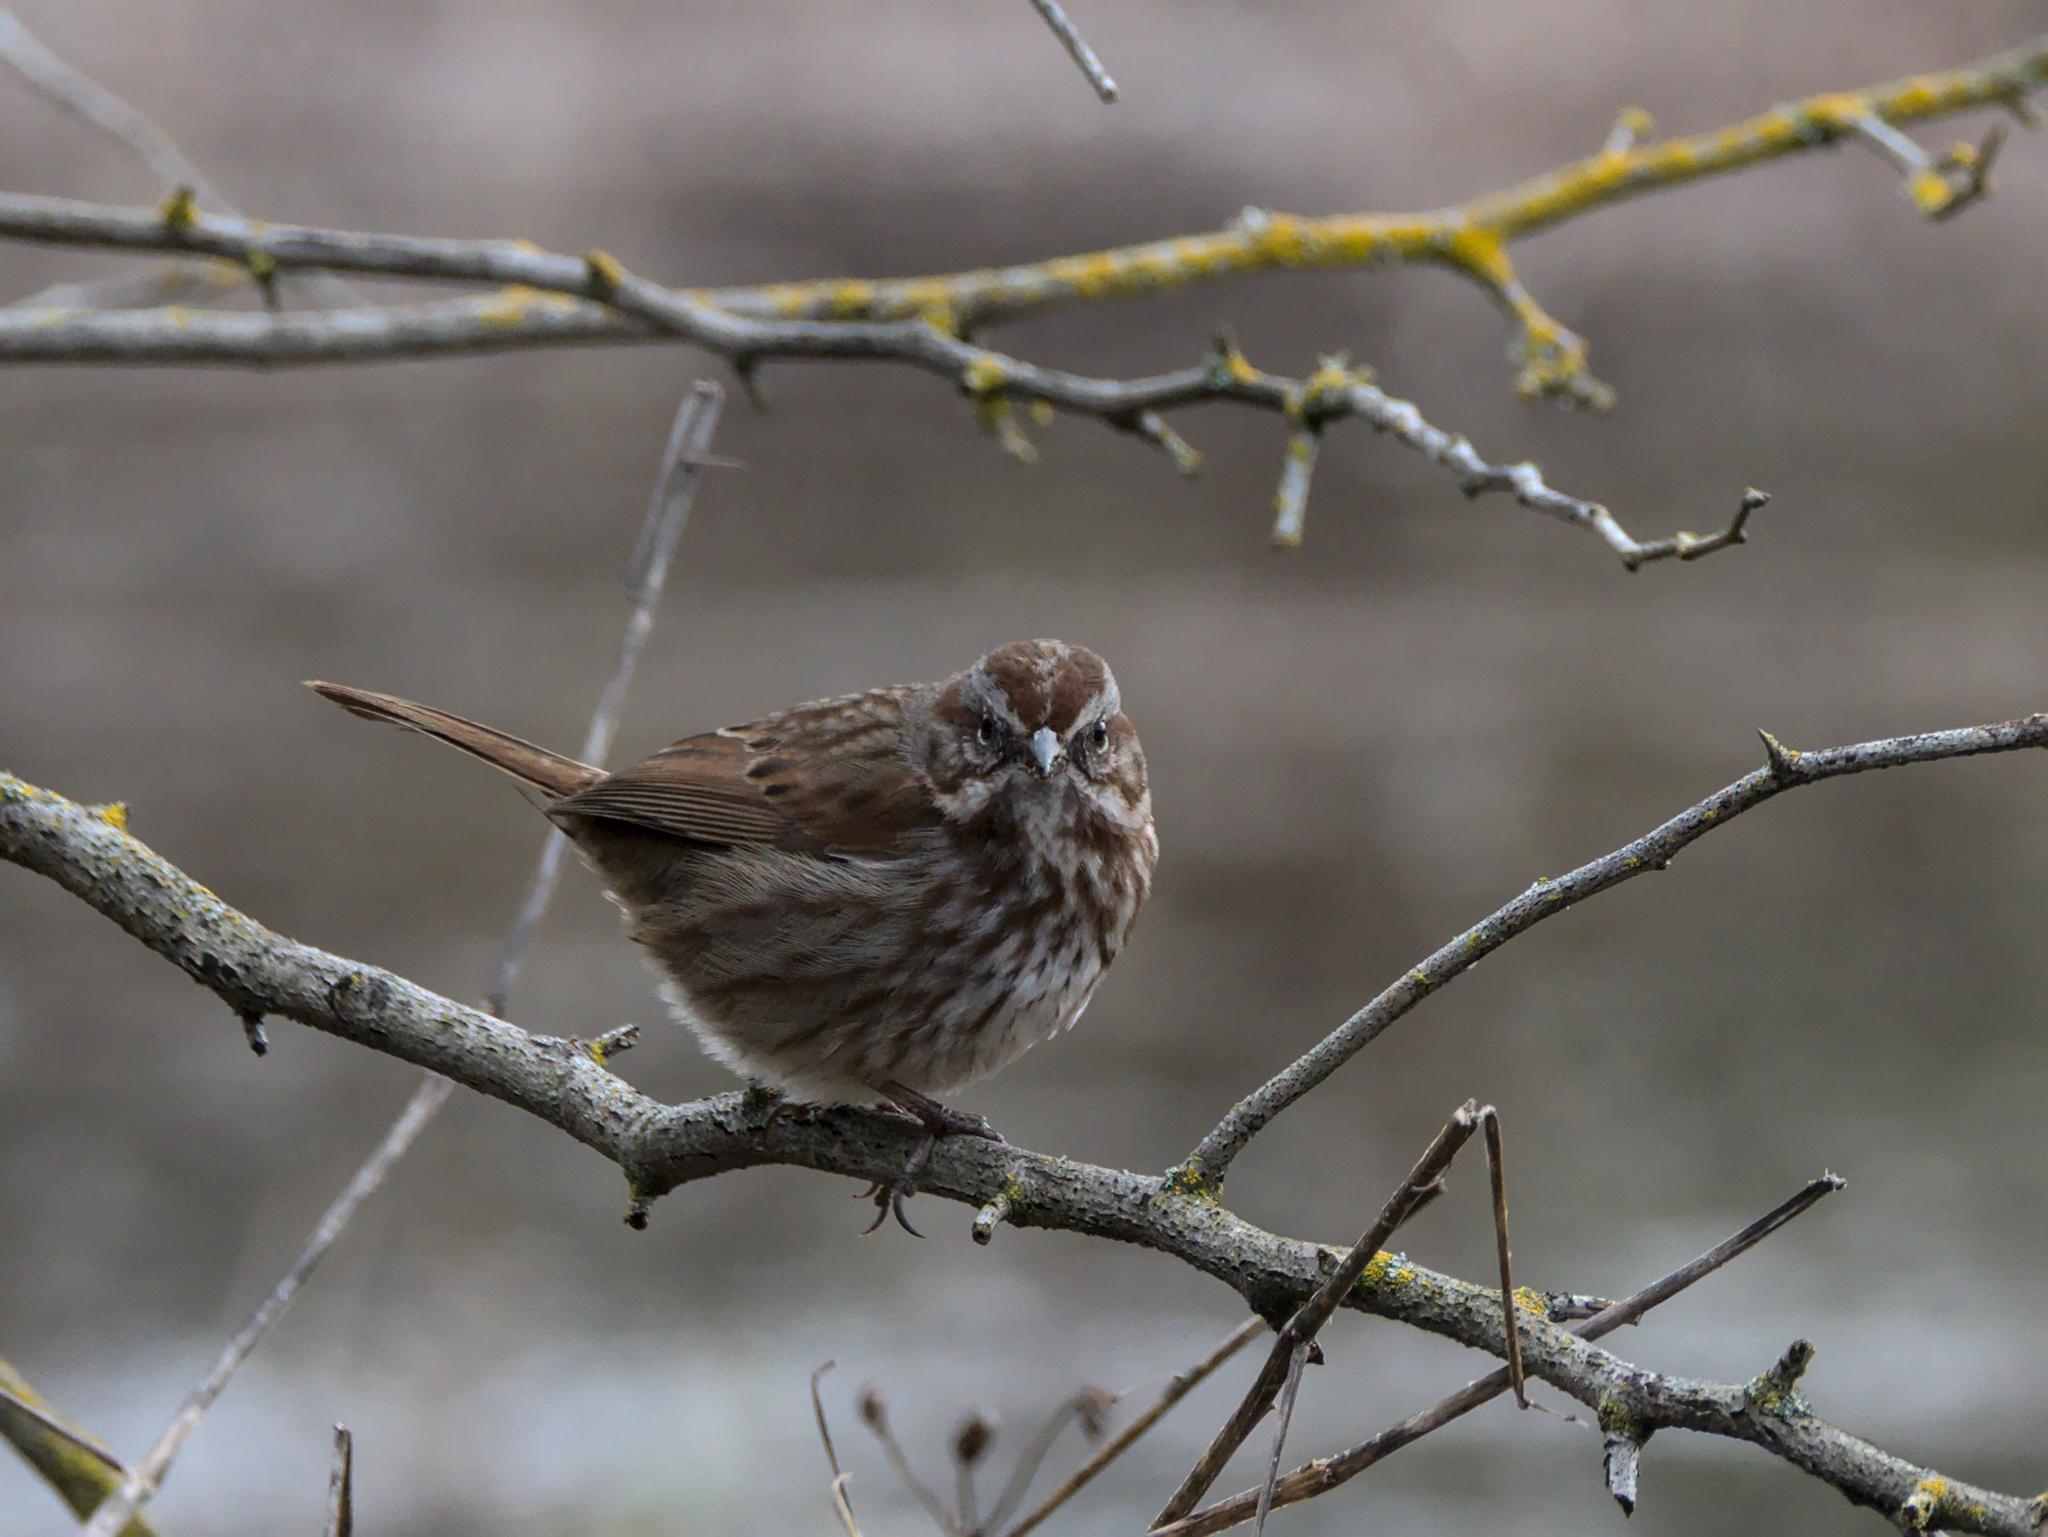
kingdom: Animalia
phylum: Chordata
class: Aves
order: Passeriformes
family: Passerellidae
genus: Melospiza
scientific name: Melospiza melodia
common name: Song sparrow
